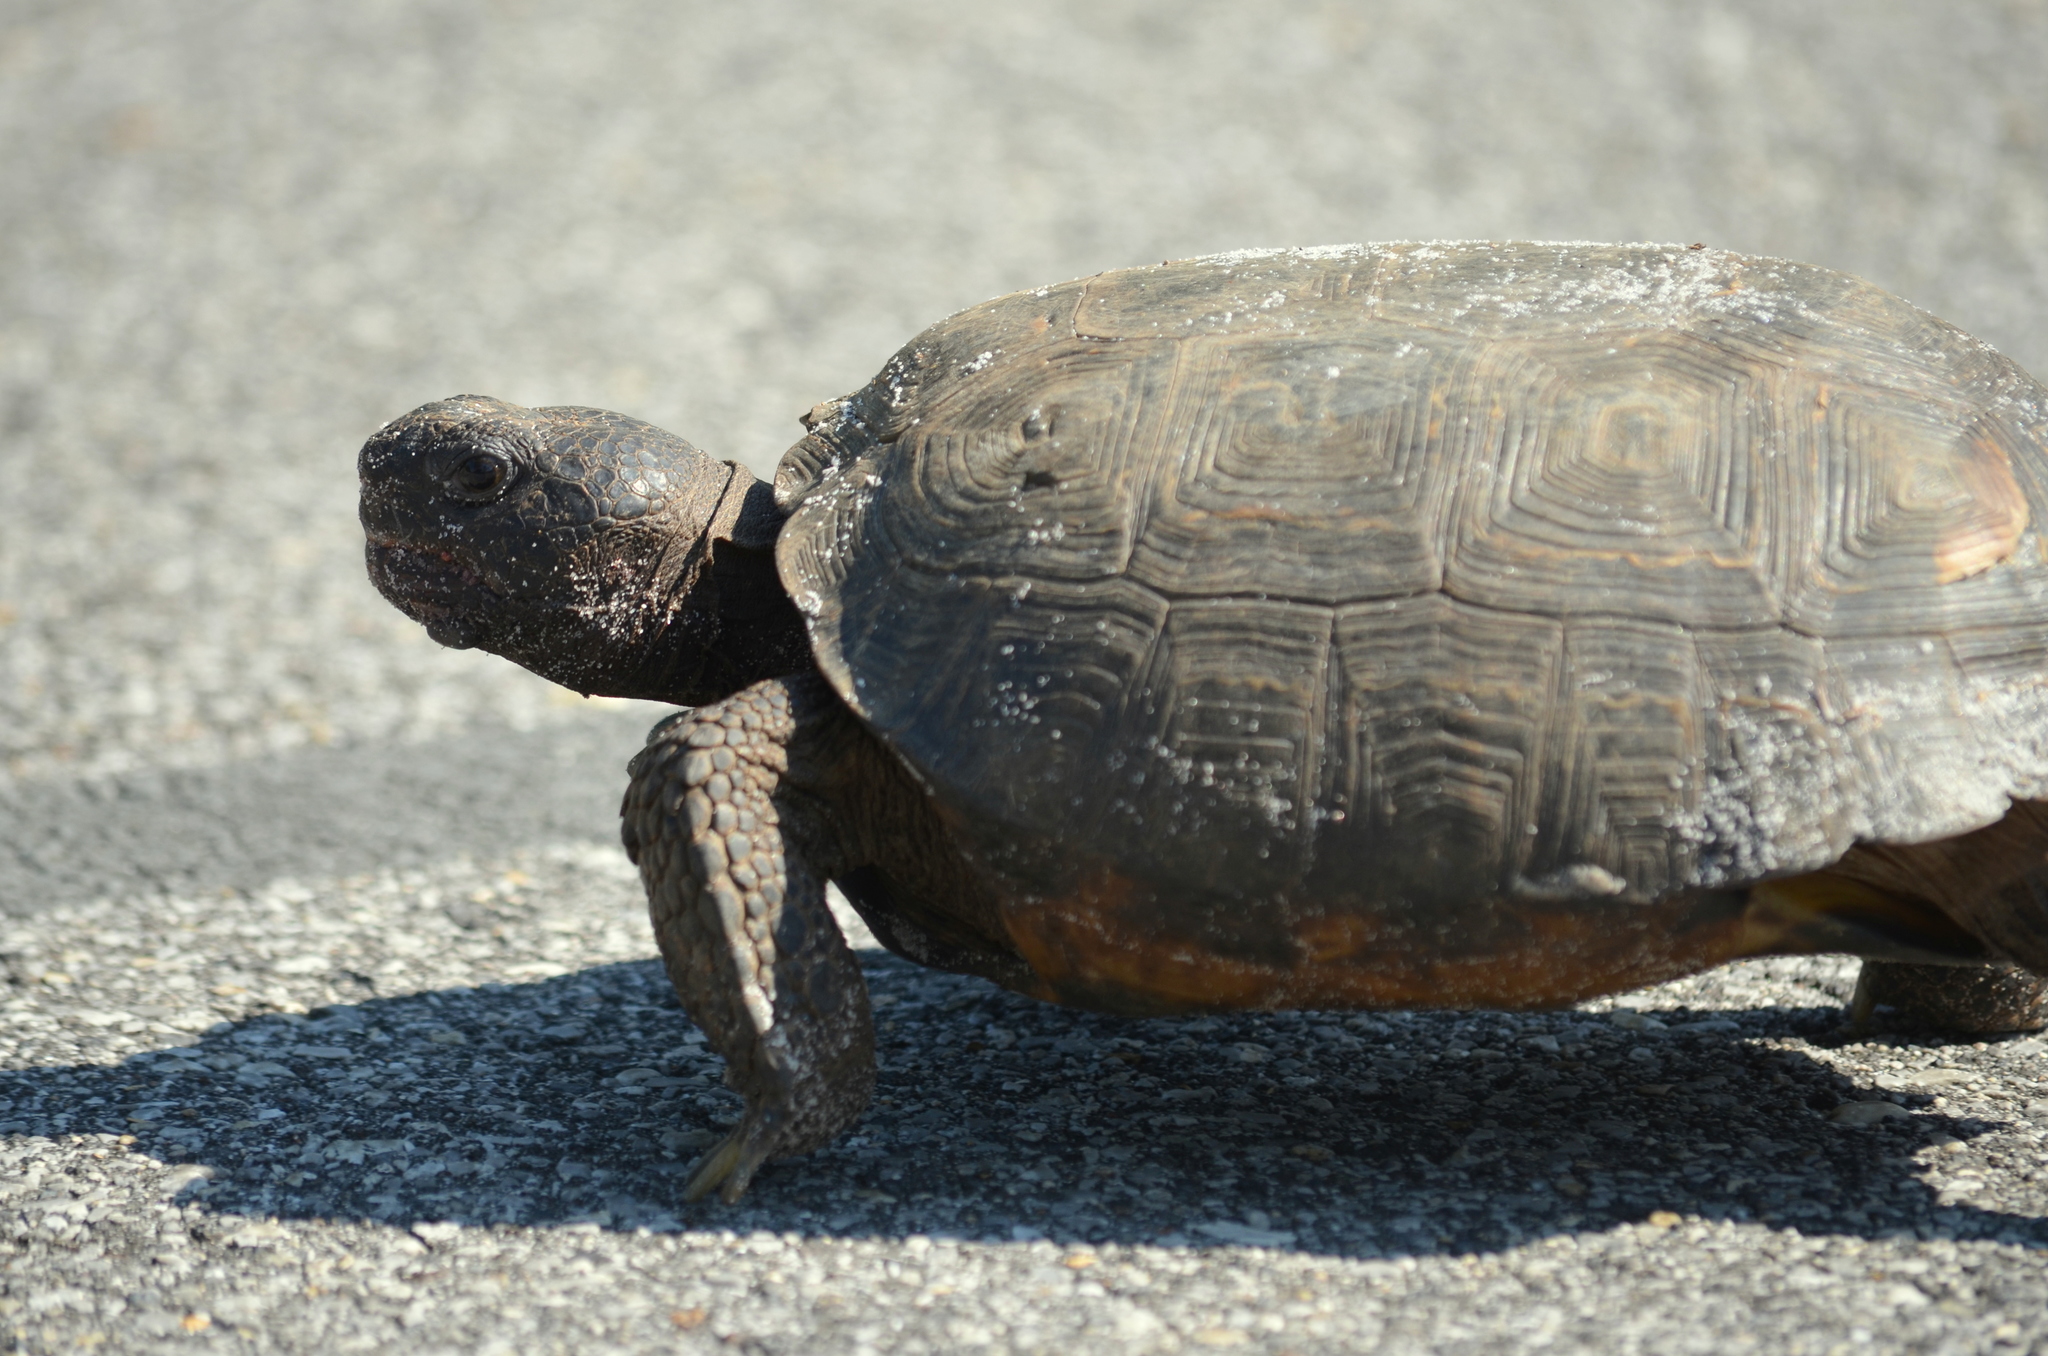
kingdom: Animalia
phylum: Chordata
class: Testudines
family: Testudinidae
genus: Gopherus
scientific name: Gopherus polyphemus
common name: Florida gopher tortoise
